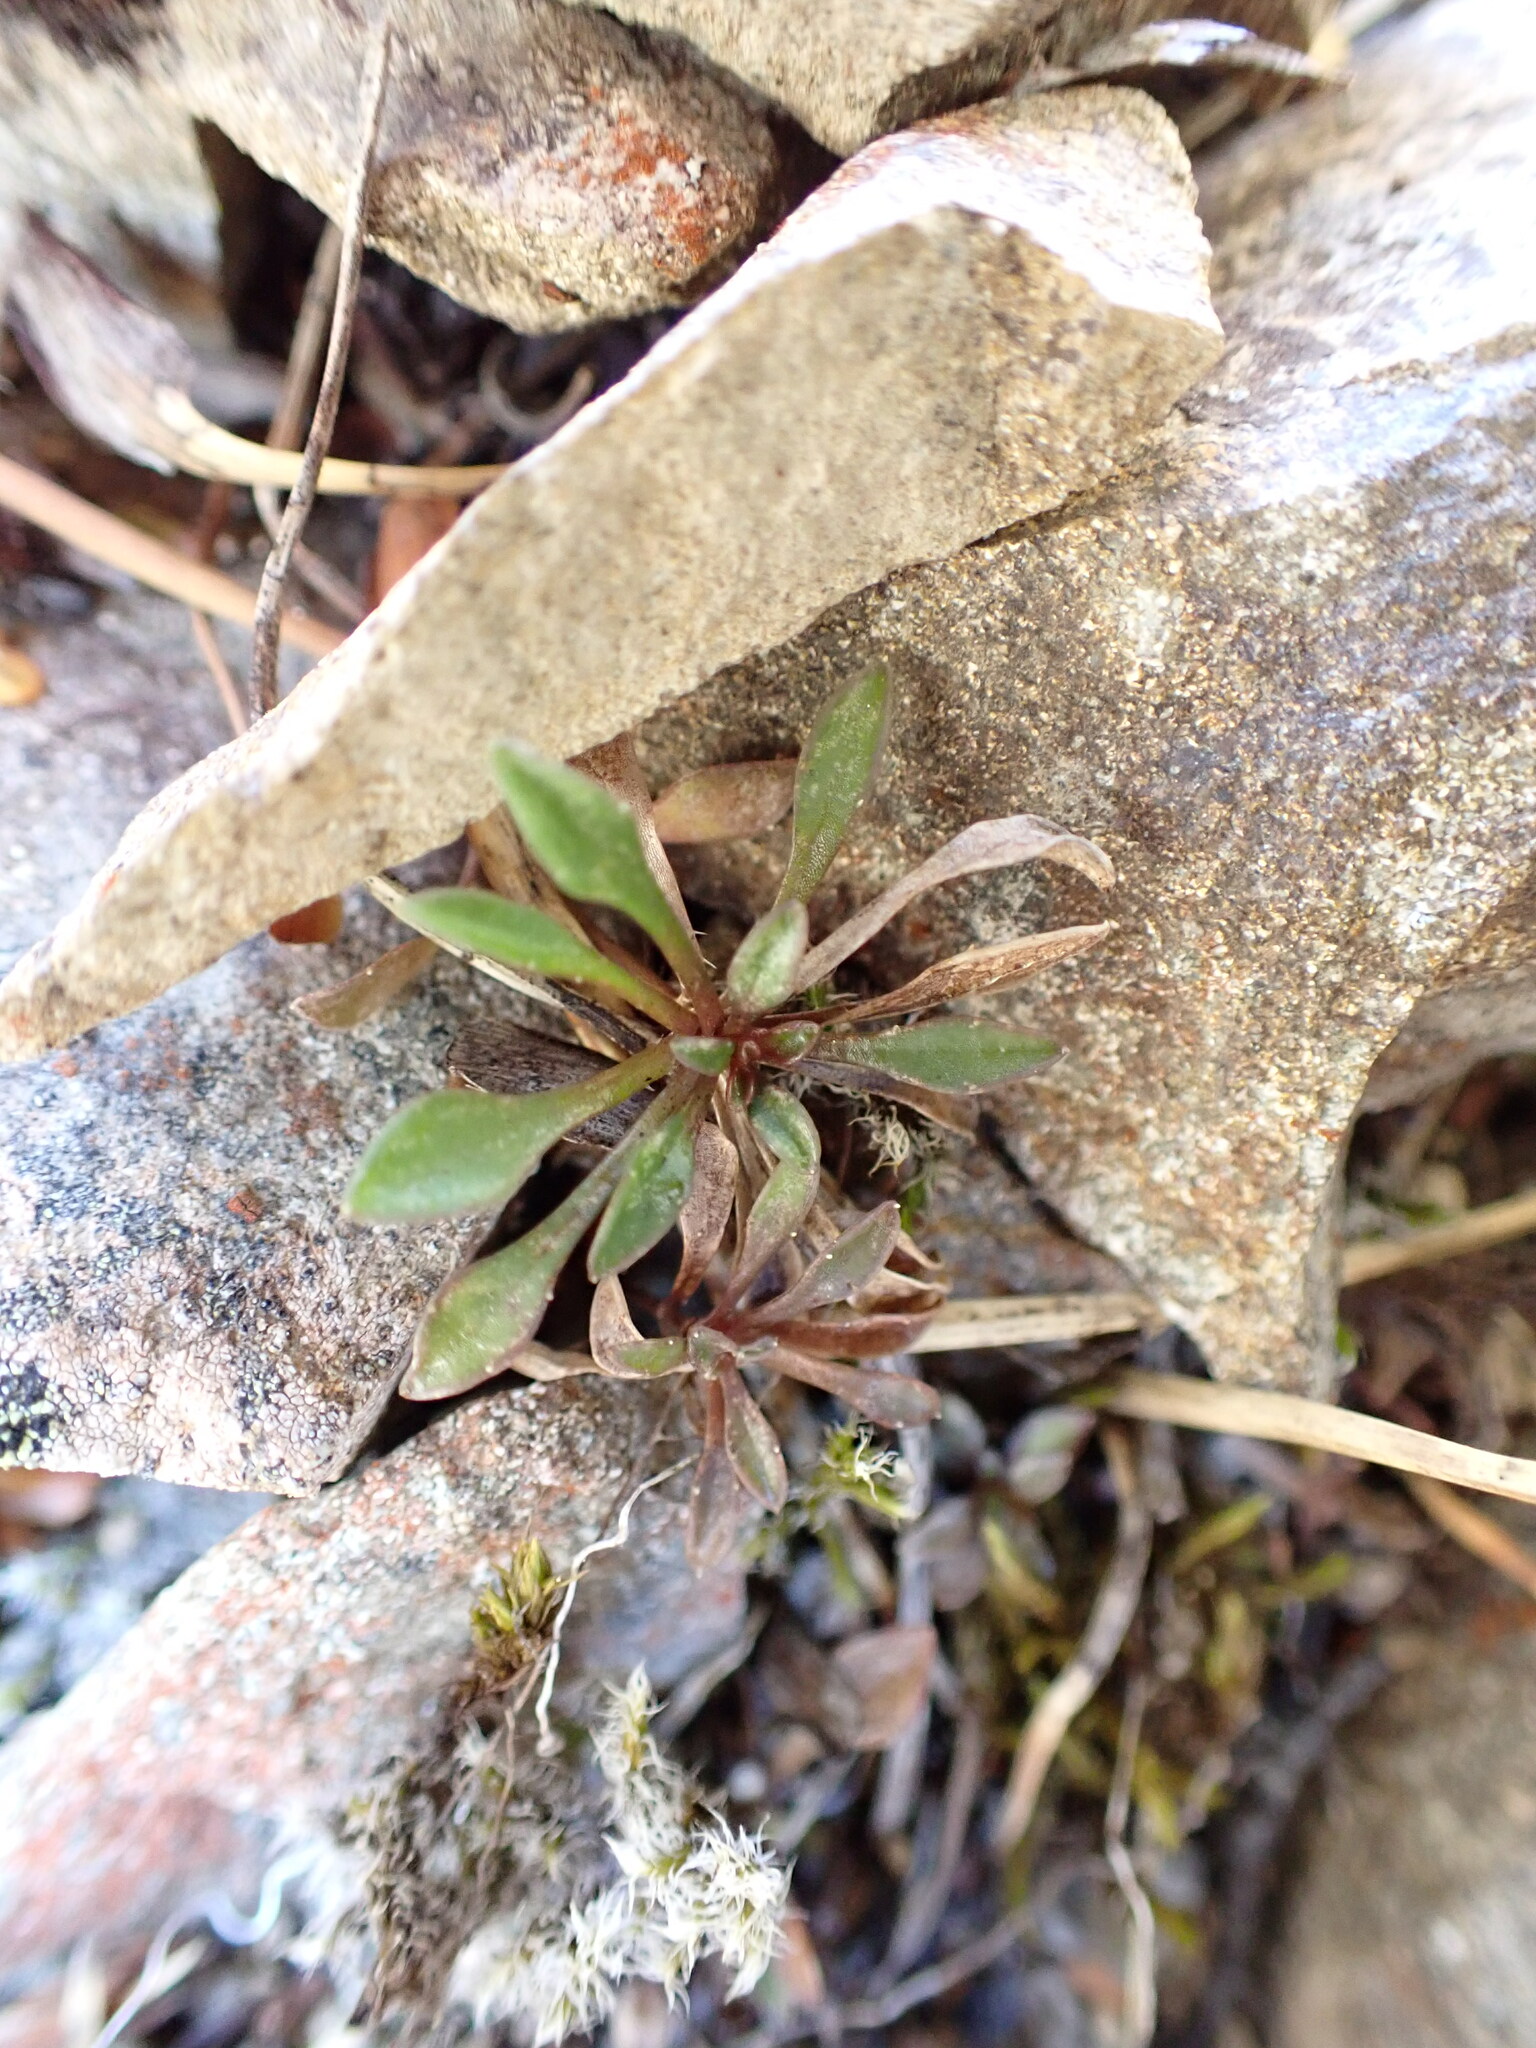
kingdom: Plantae
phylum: Tracheophyta
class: Magnoliopsida
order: Asterales
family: Campanulaceae
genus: Wahlenbergia
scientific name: Wahlenbergia albomarginata
